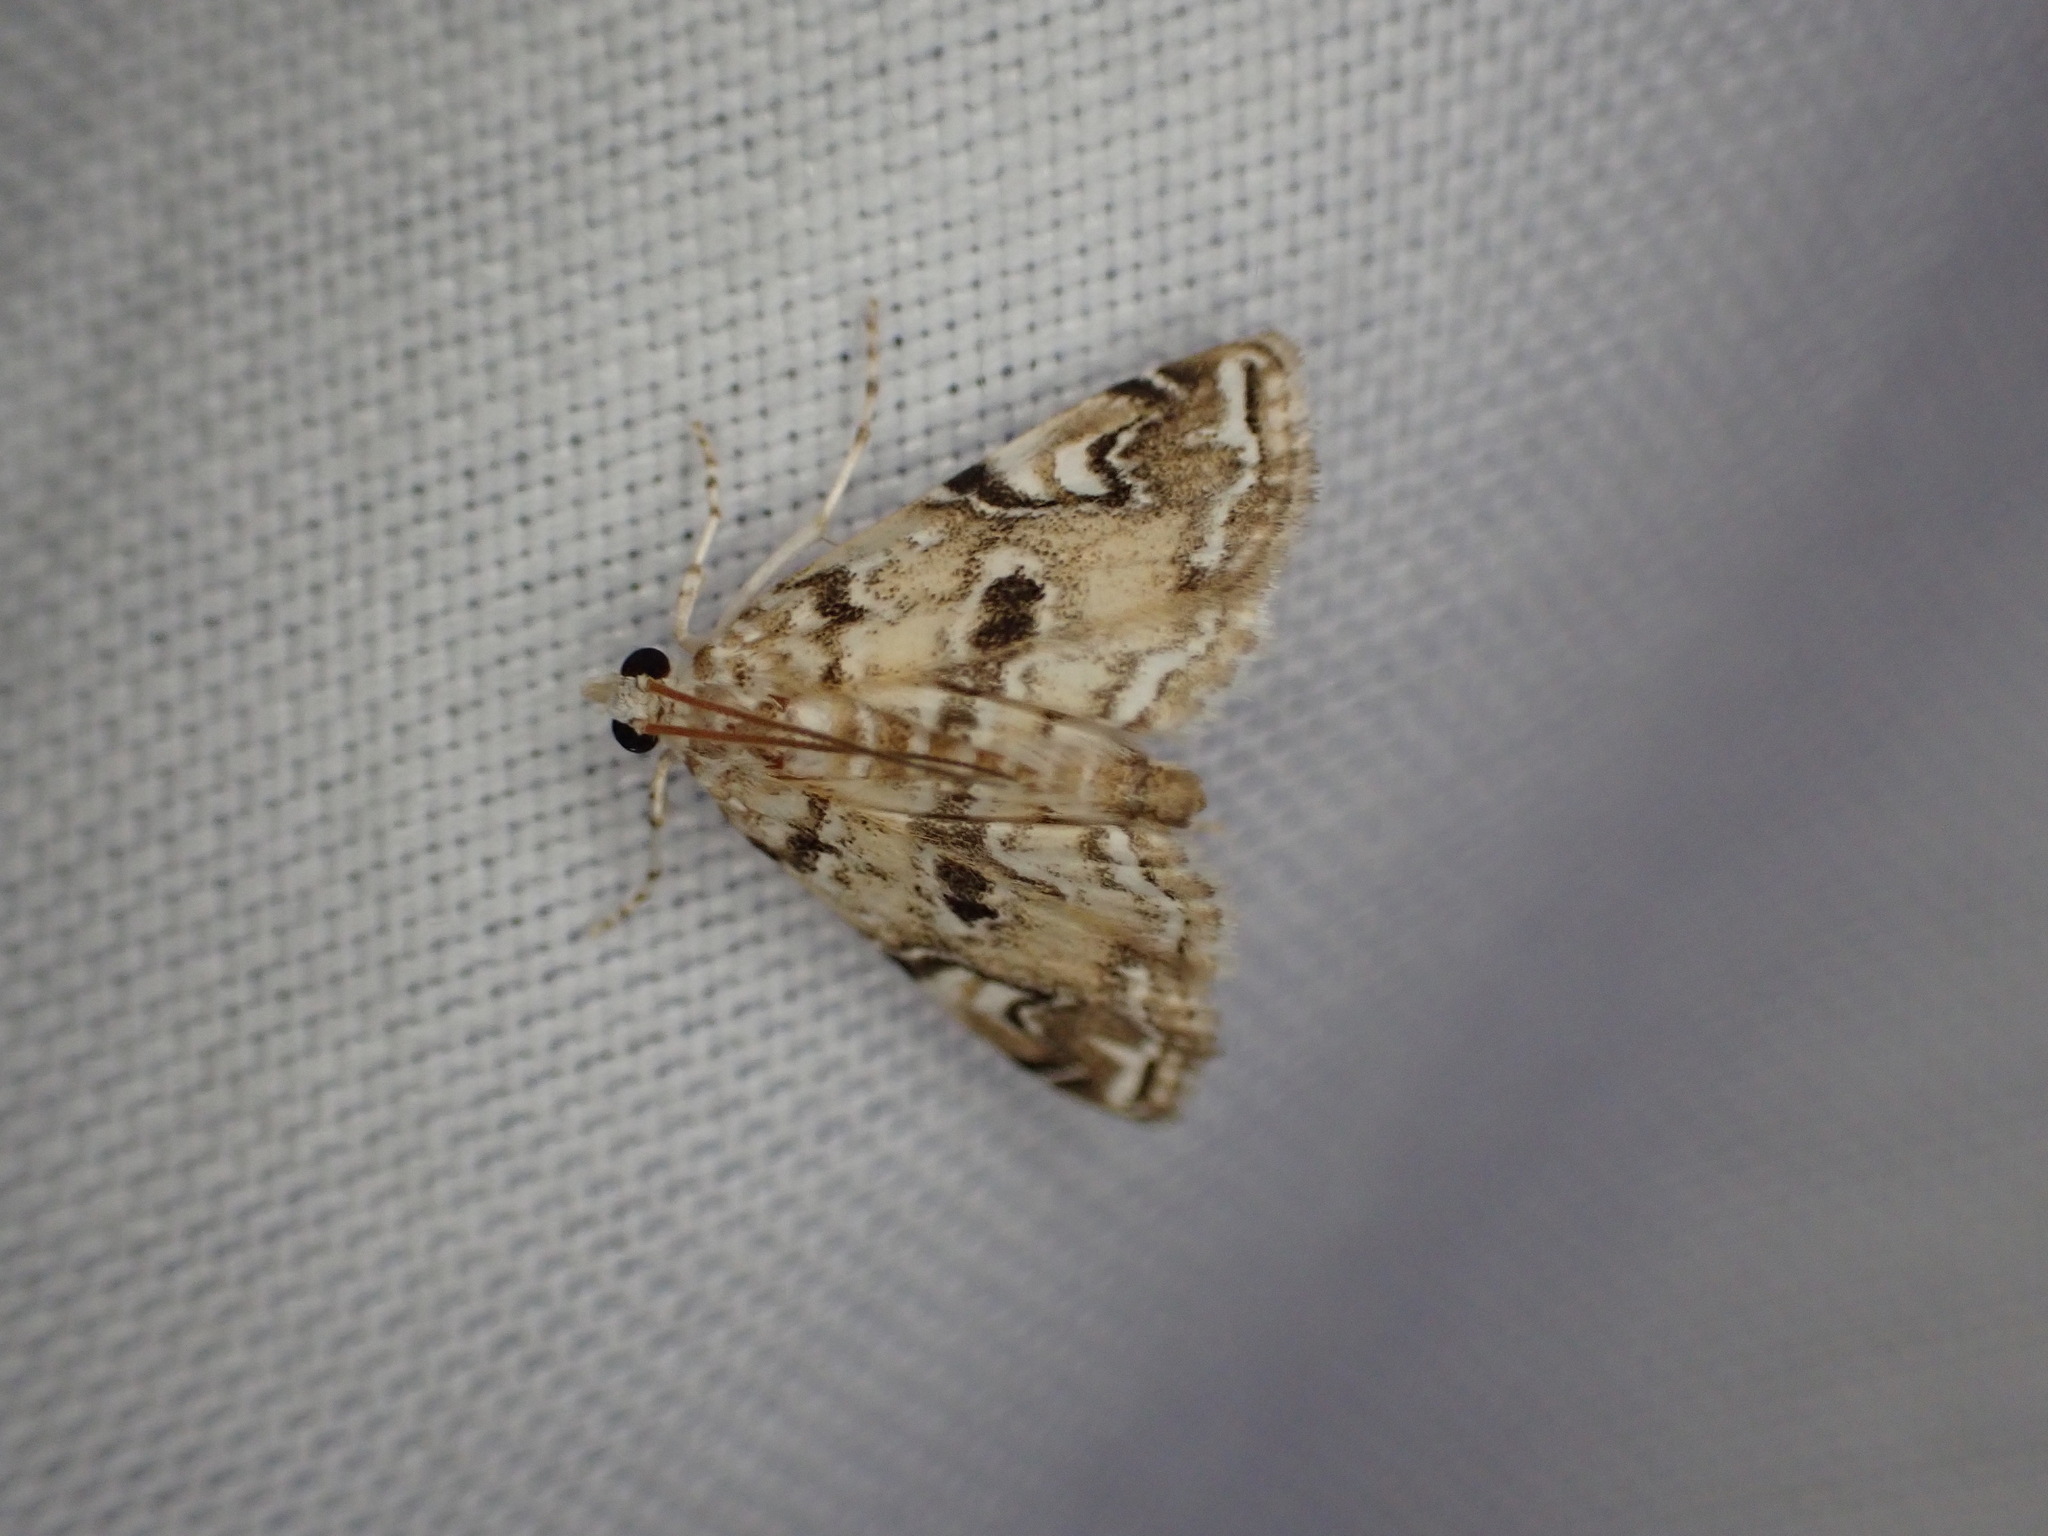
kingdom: Animalia
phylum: Arthropoda
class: Insecta
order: Lepidoptera
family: Crambidae
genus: Elophila
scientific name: Elophila gyralis
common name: Waterlily borer moth
